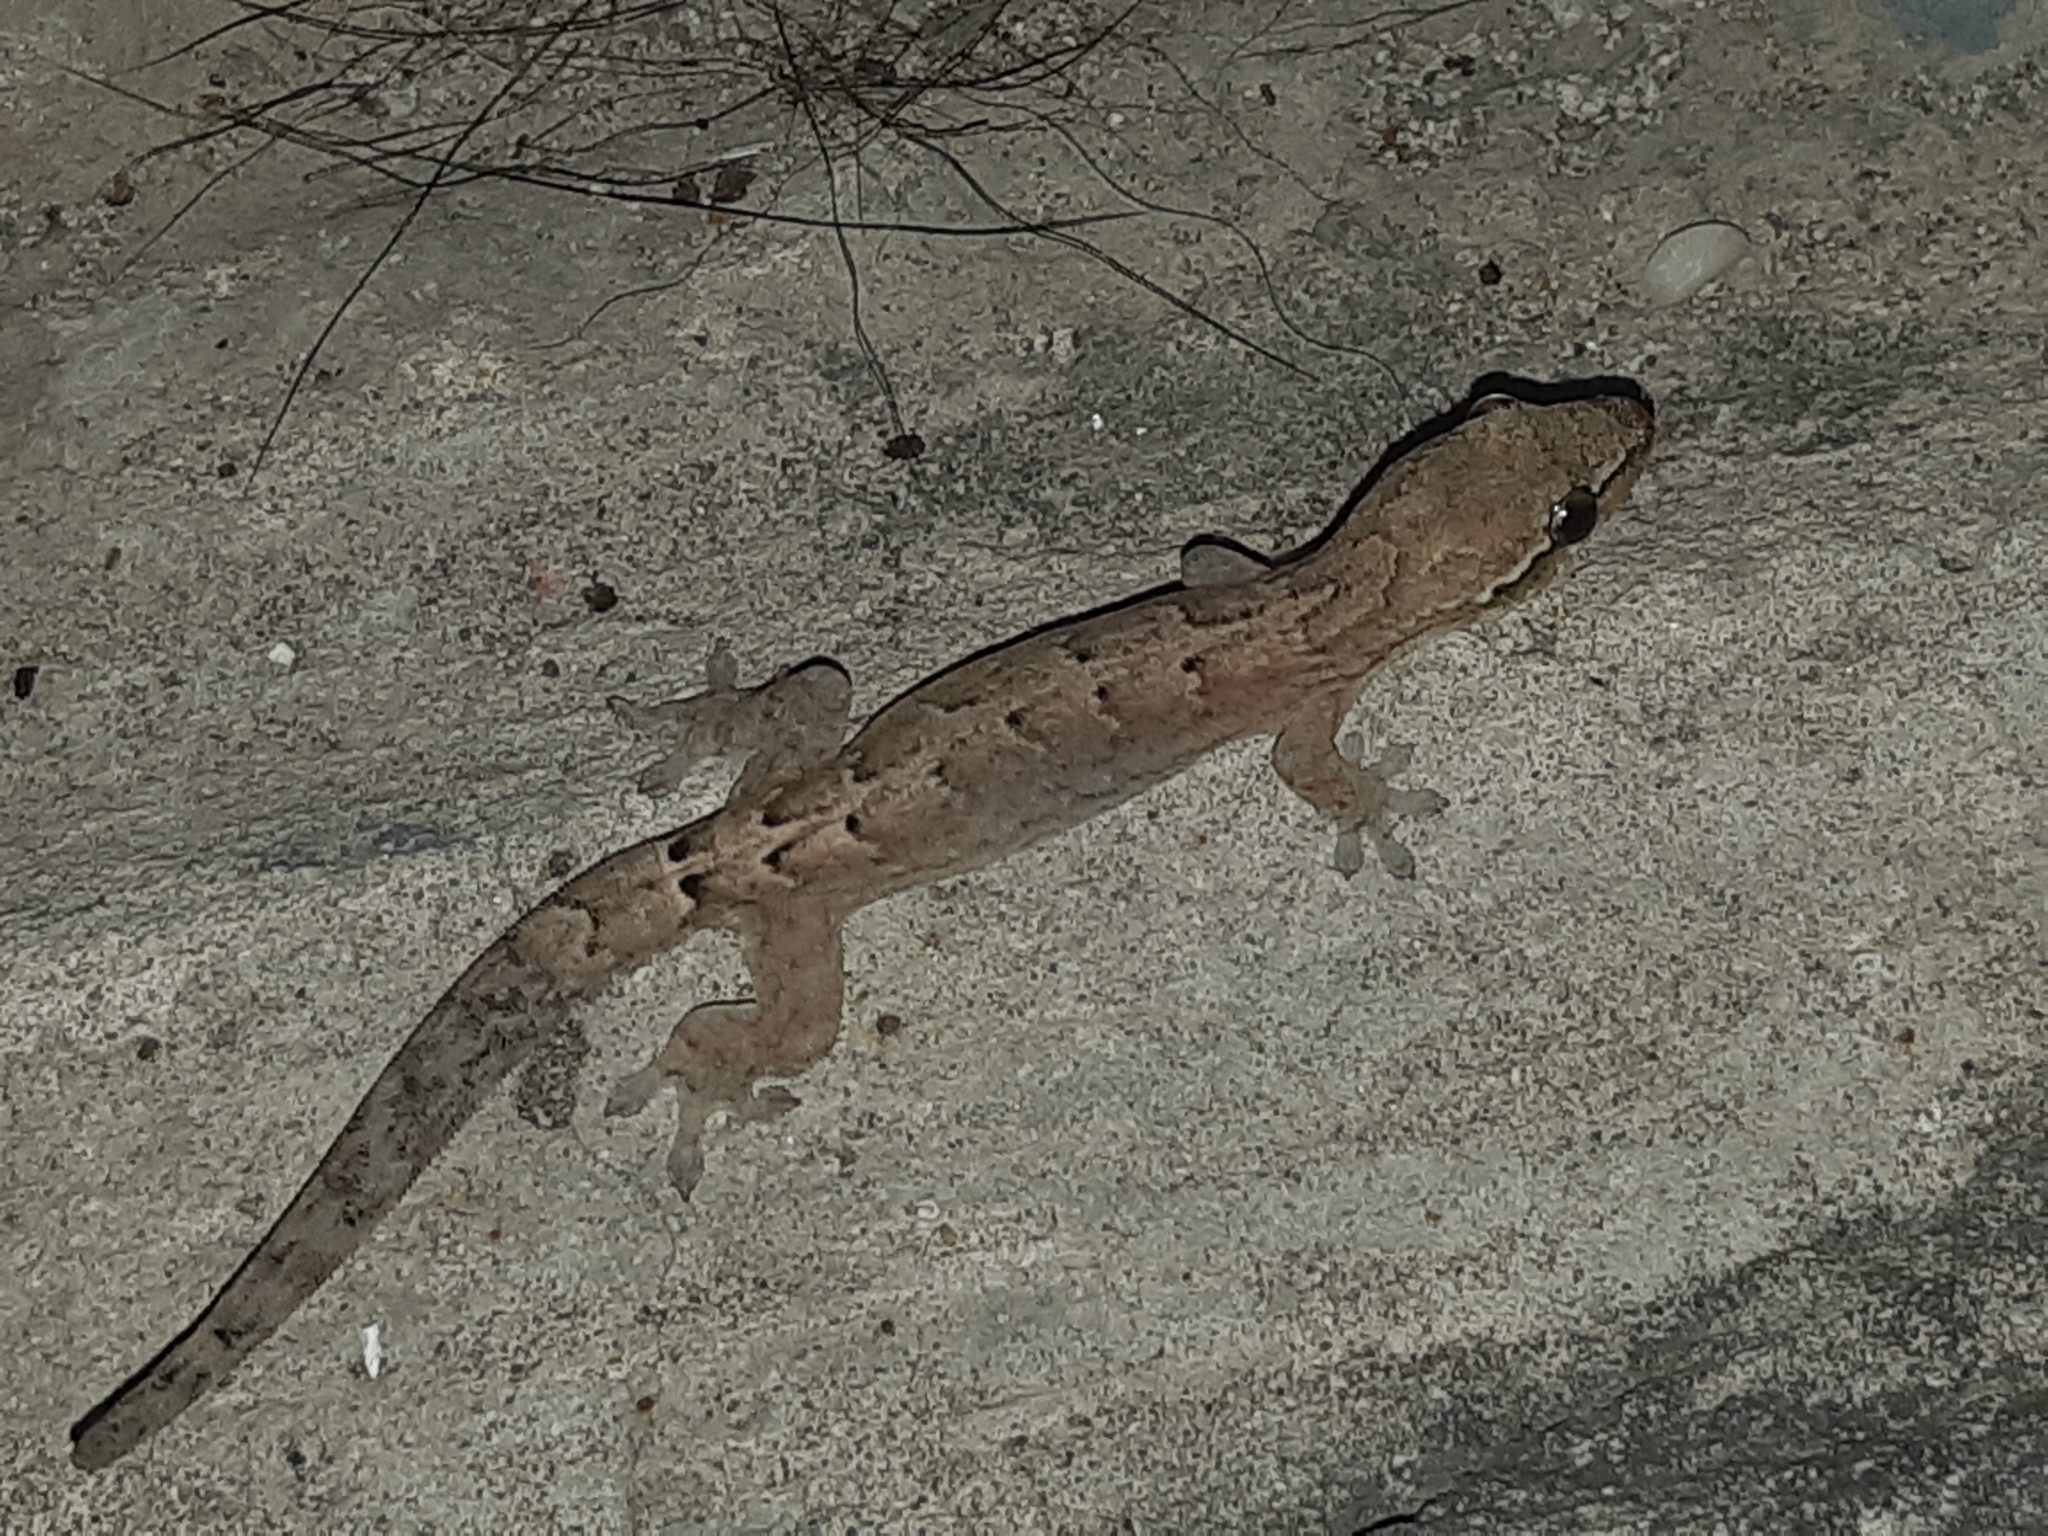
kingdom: Animalia
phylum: Chordata
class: Squamata
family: Gekkonidae
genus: Lepidodactylus
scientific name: Lepidodactylus lugubris
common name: Mourning gecko
